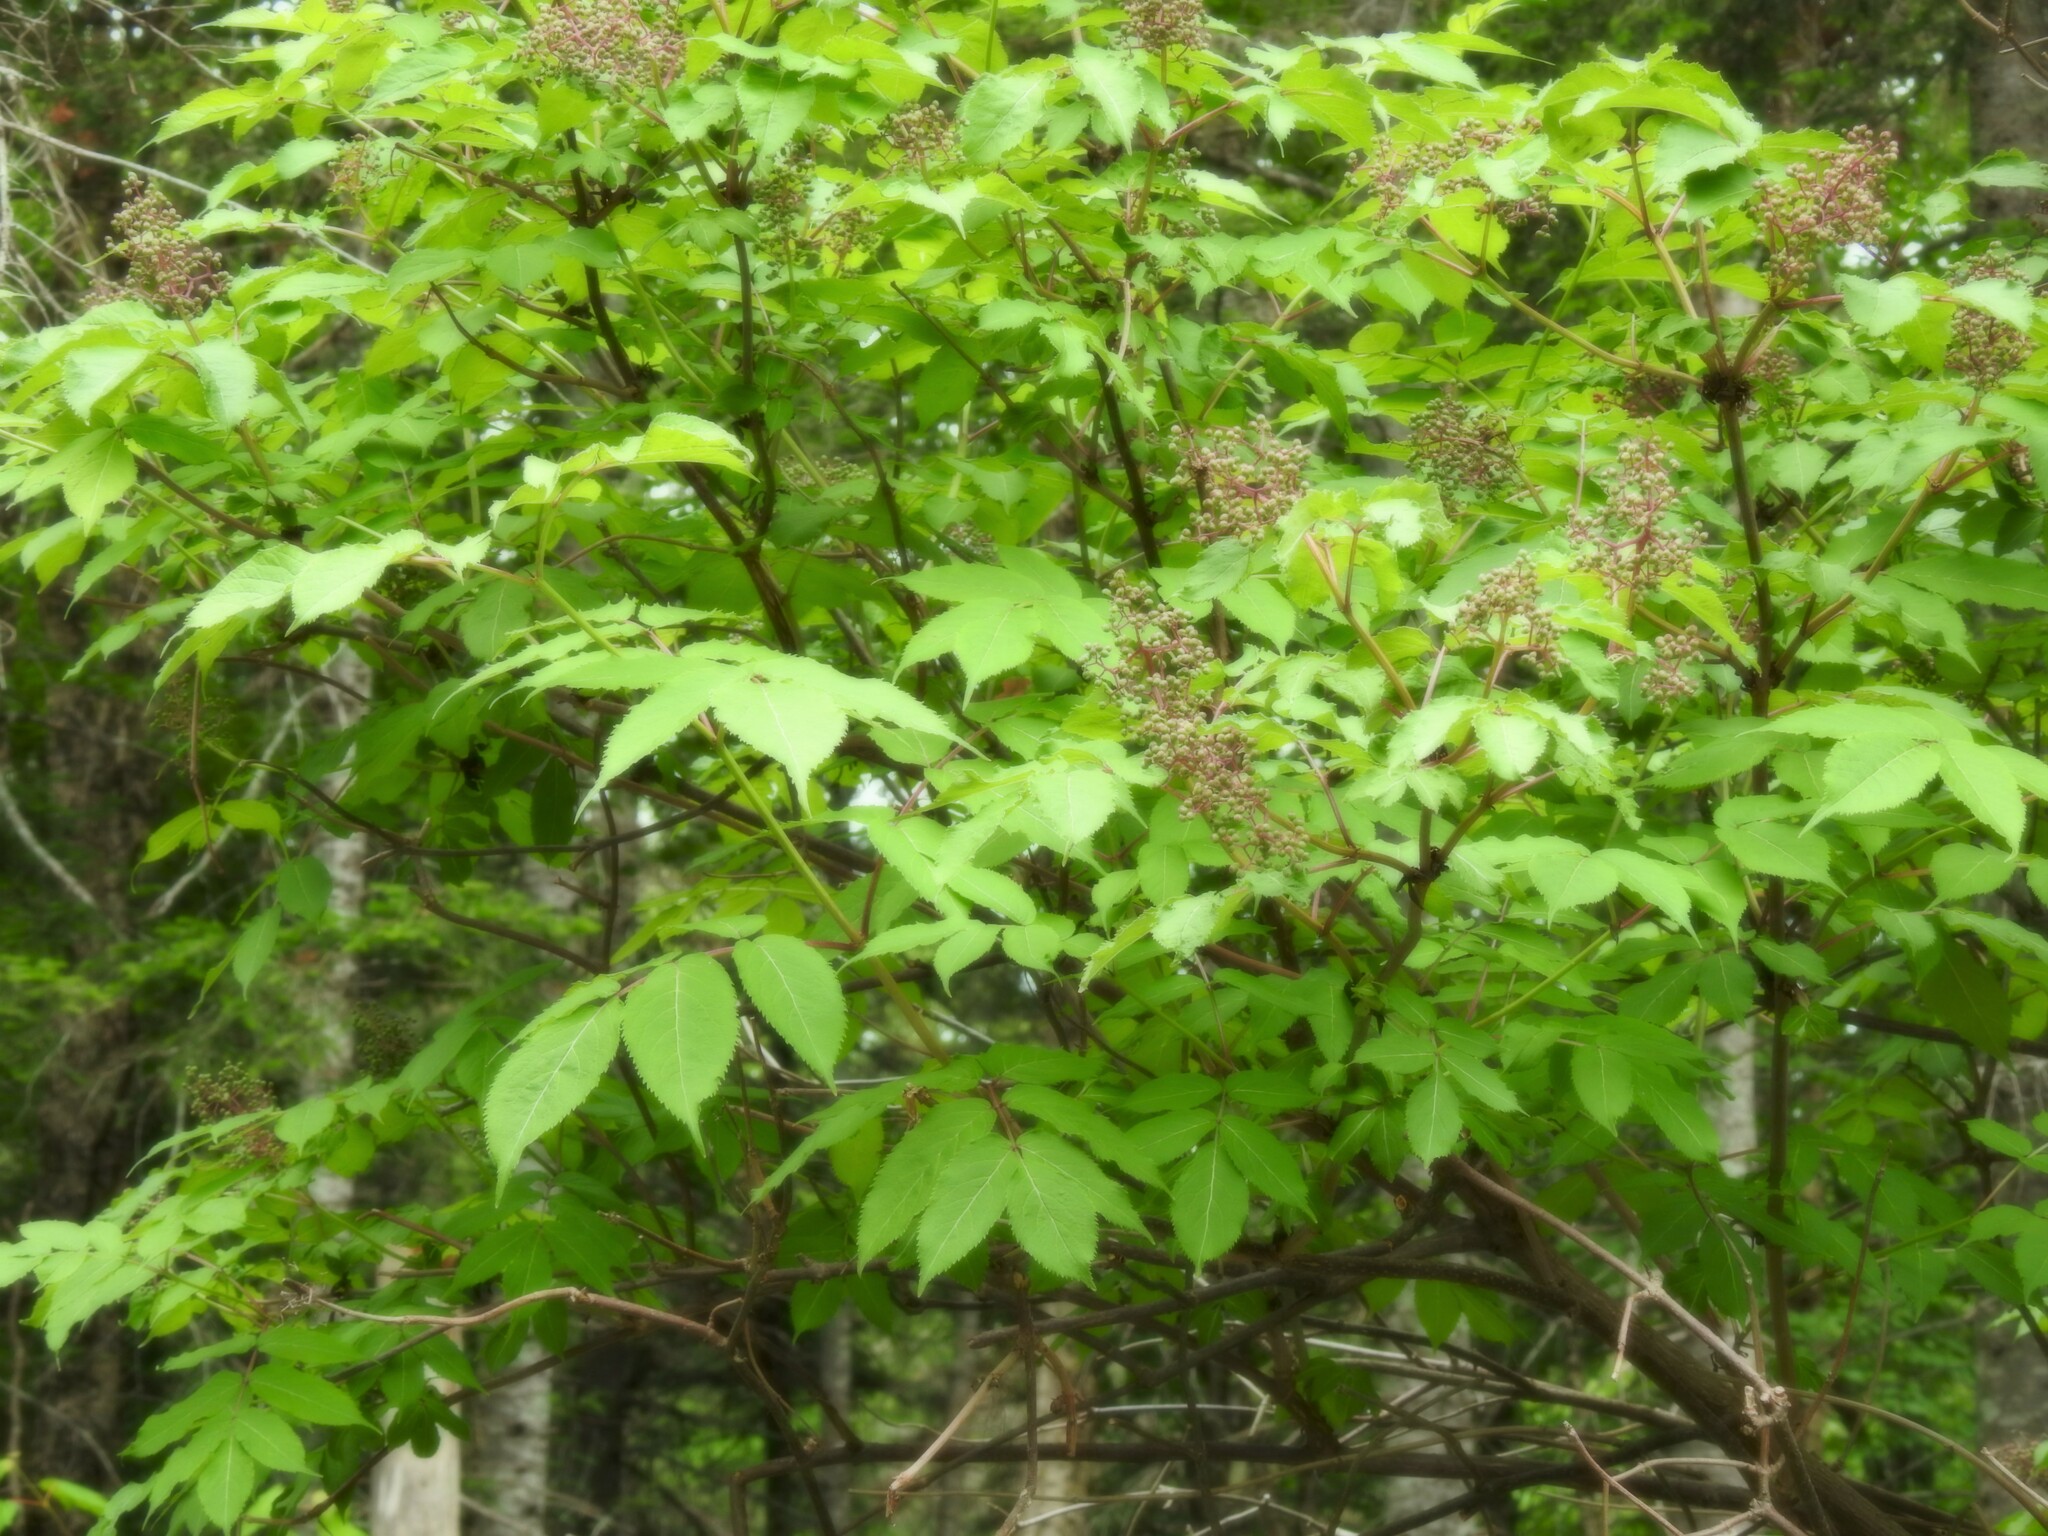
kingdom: Plantae
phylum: Tracheophyta
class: Magnoliopsida
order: Dipsacales
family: Viburnaceae
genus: Sambucus
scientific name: Sambucus racemosa
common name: Red-berried elder
